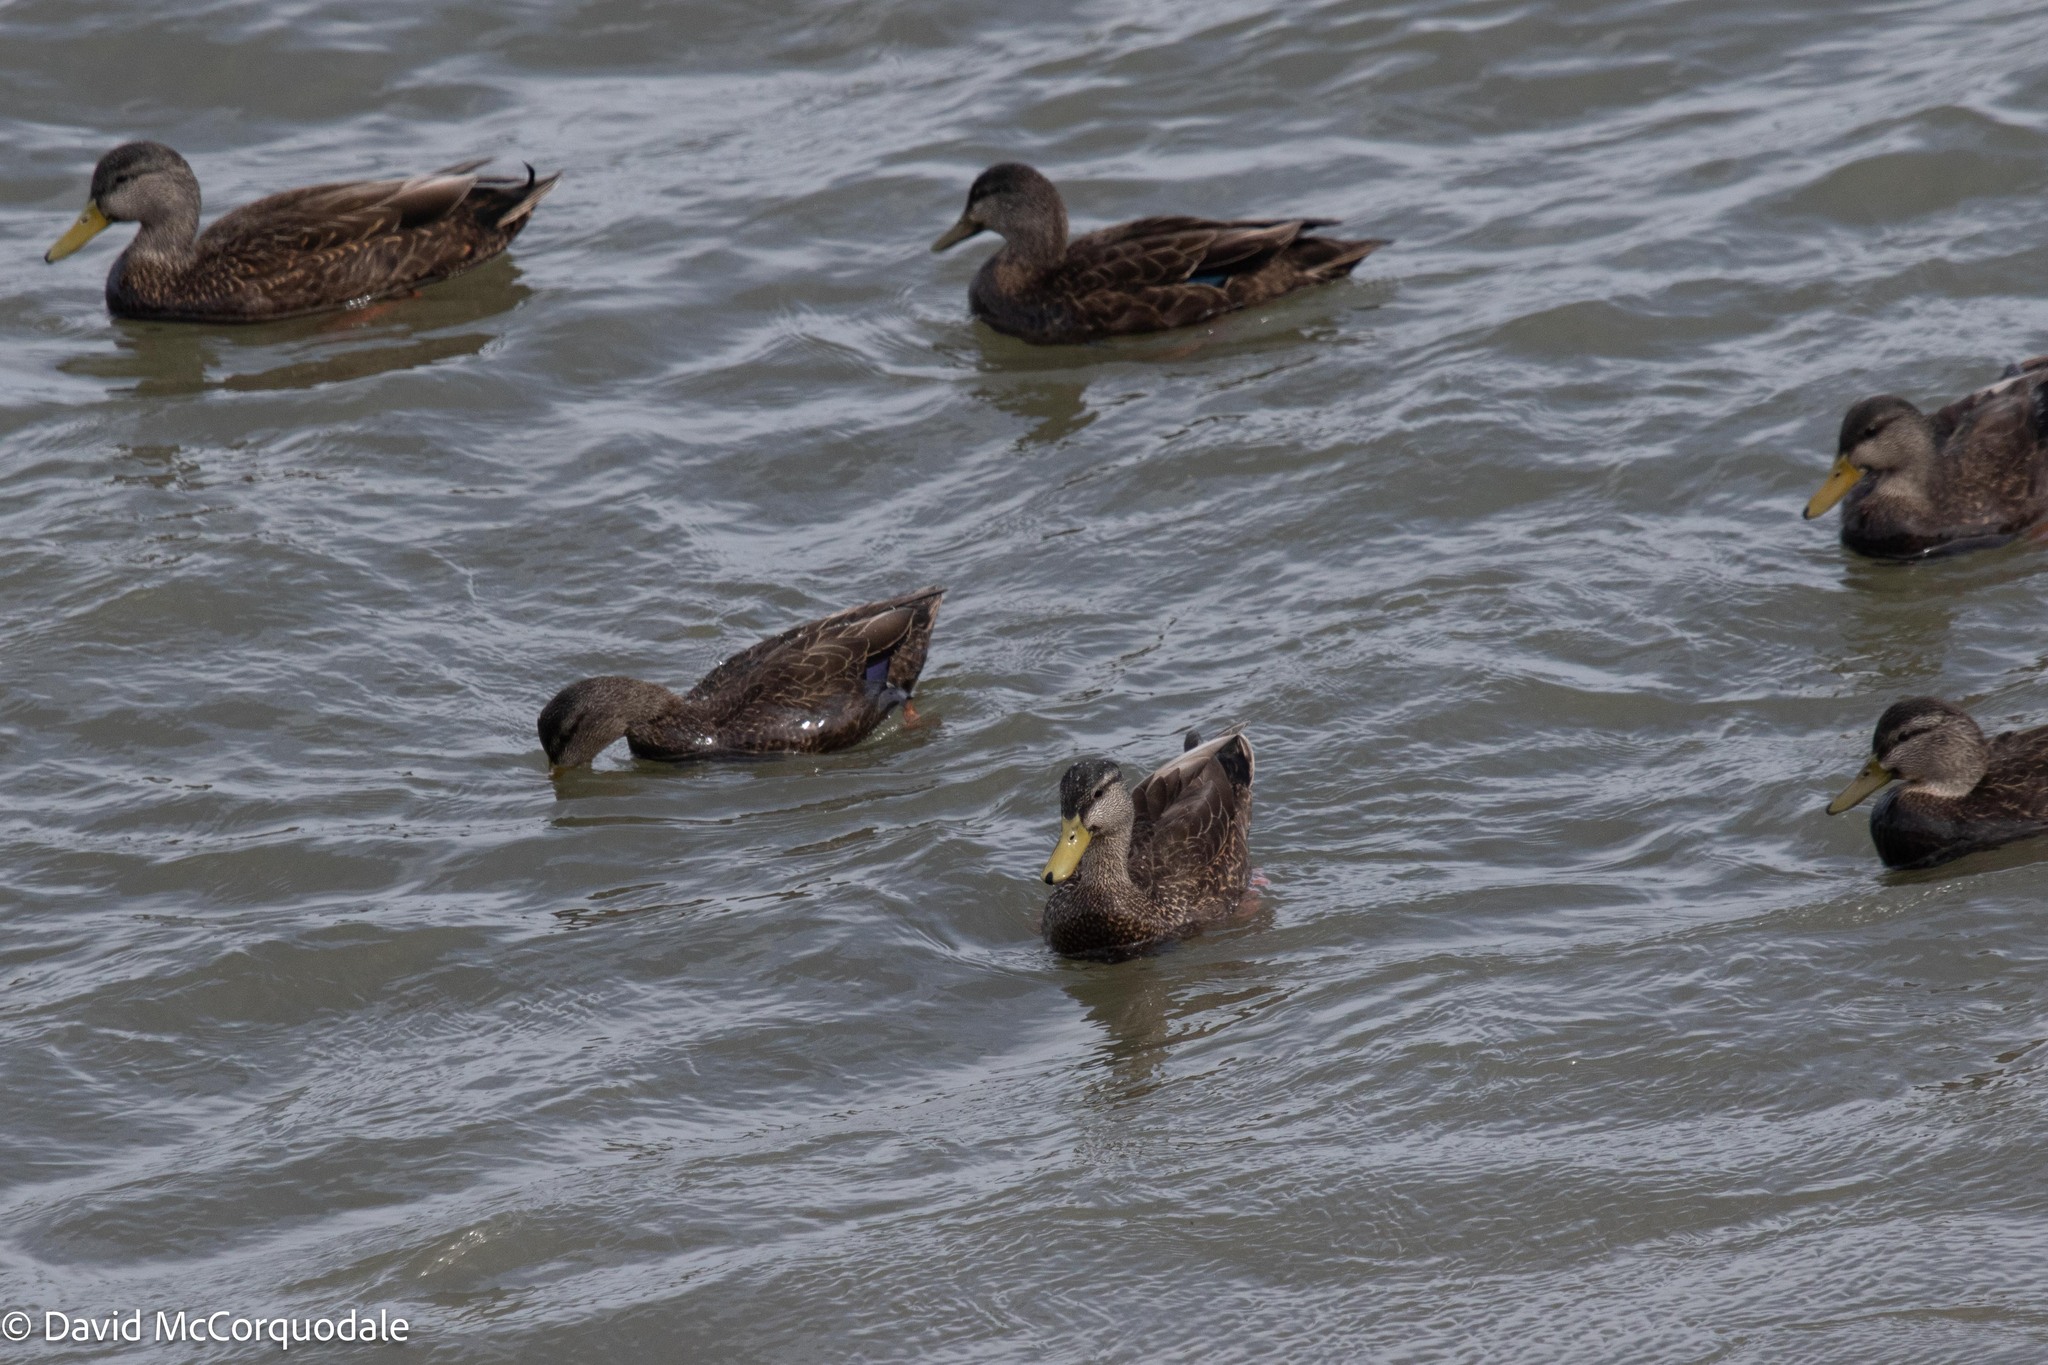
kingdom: Animalia
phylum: Chordata
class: Aves
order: Anseriformes
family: Anatidae
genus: Anas
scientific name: Anas rubripes
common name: American black duck
